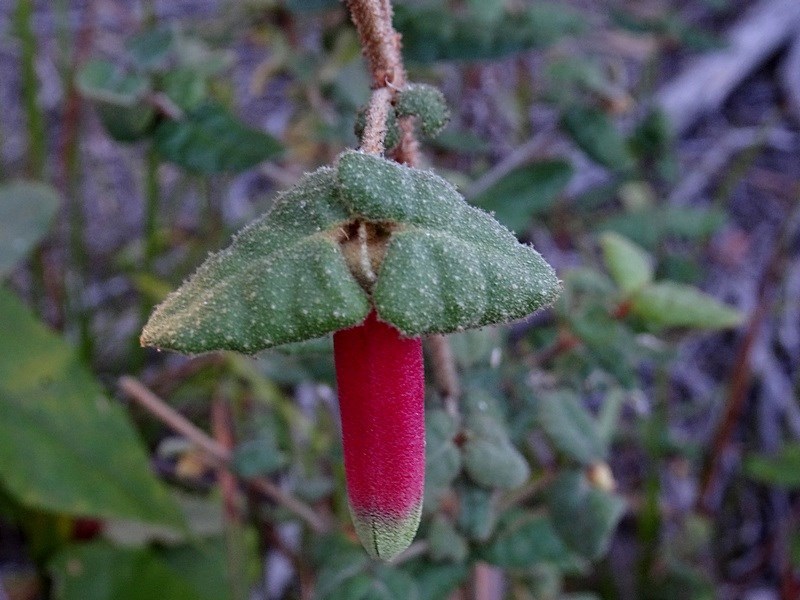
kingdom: Plantae
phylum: Tracheophyta
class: Magnoliopsida
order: Sapindales
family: Rutaceae
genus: Correa
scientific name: Correa reflexa
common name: Common correa
